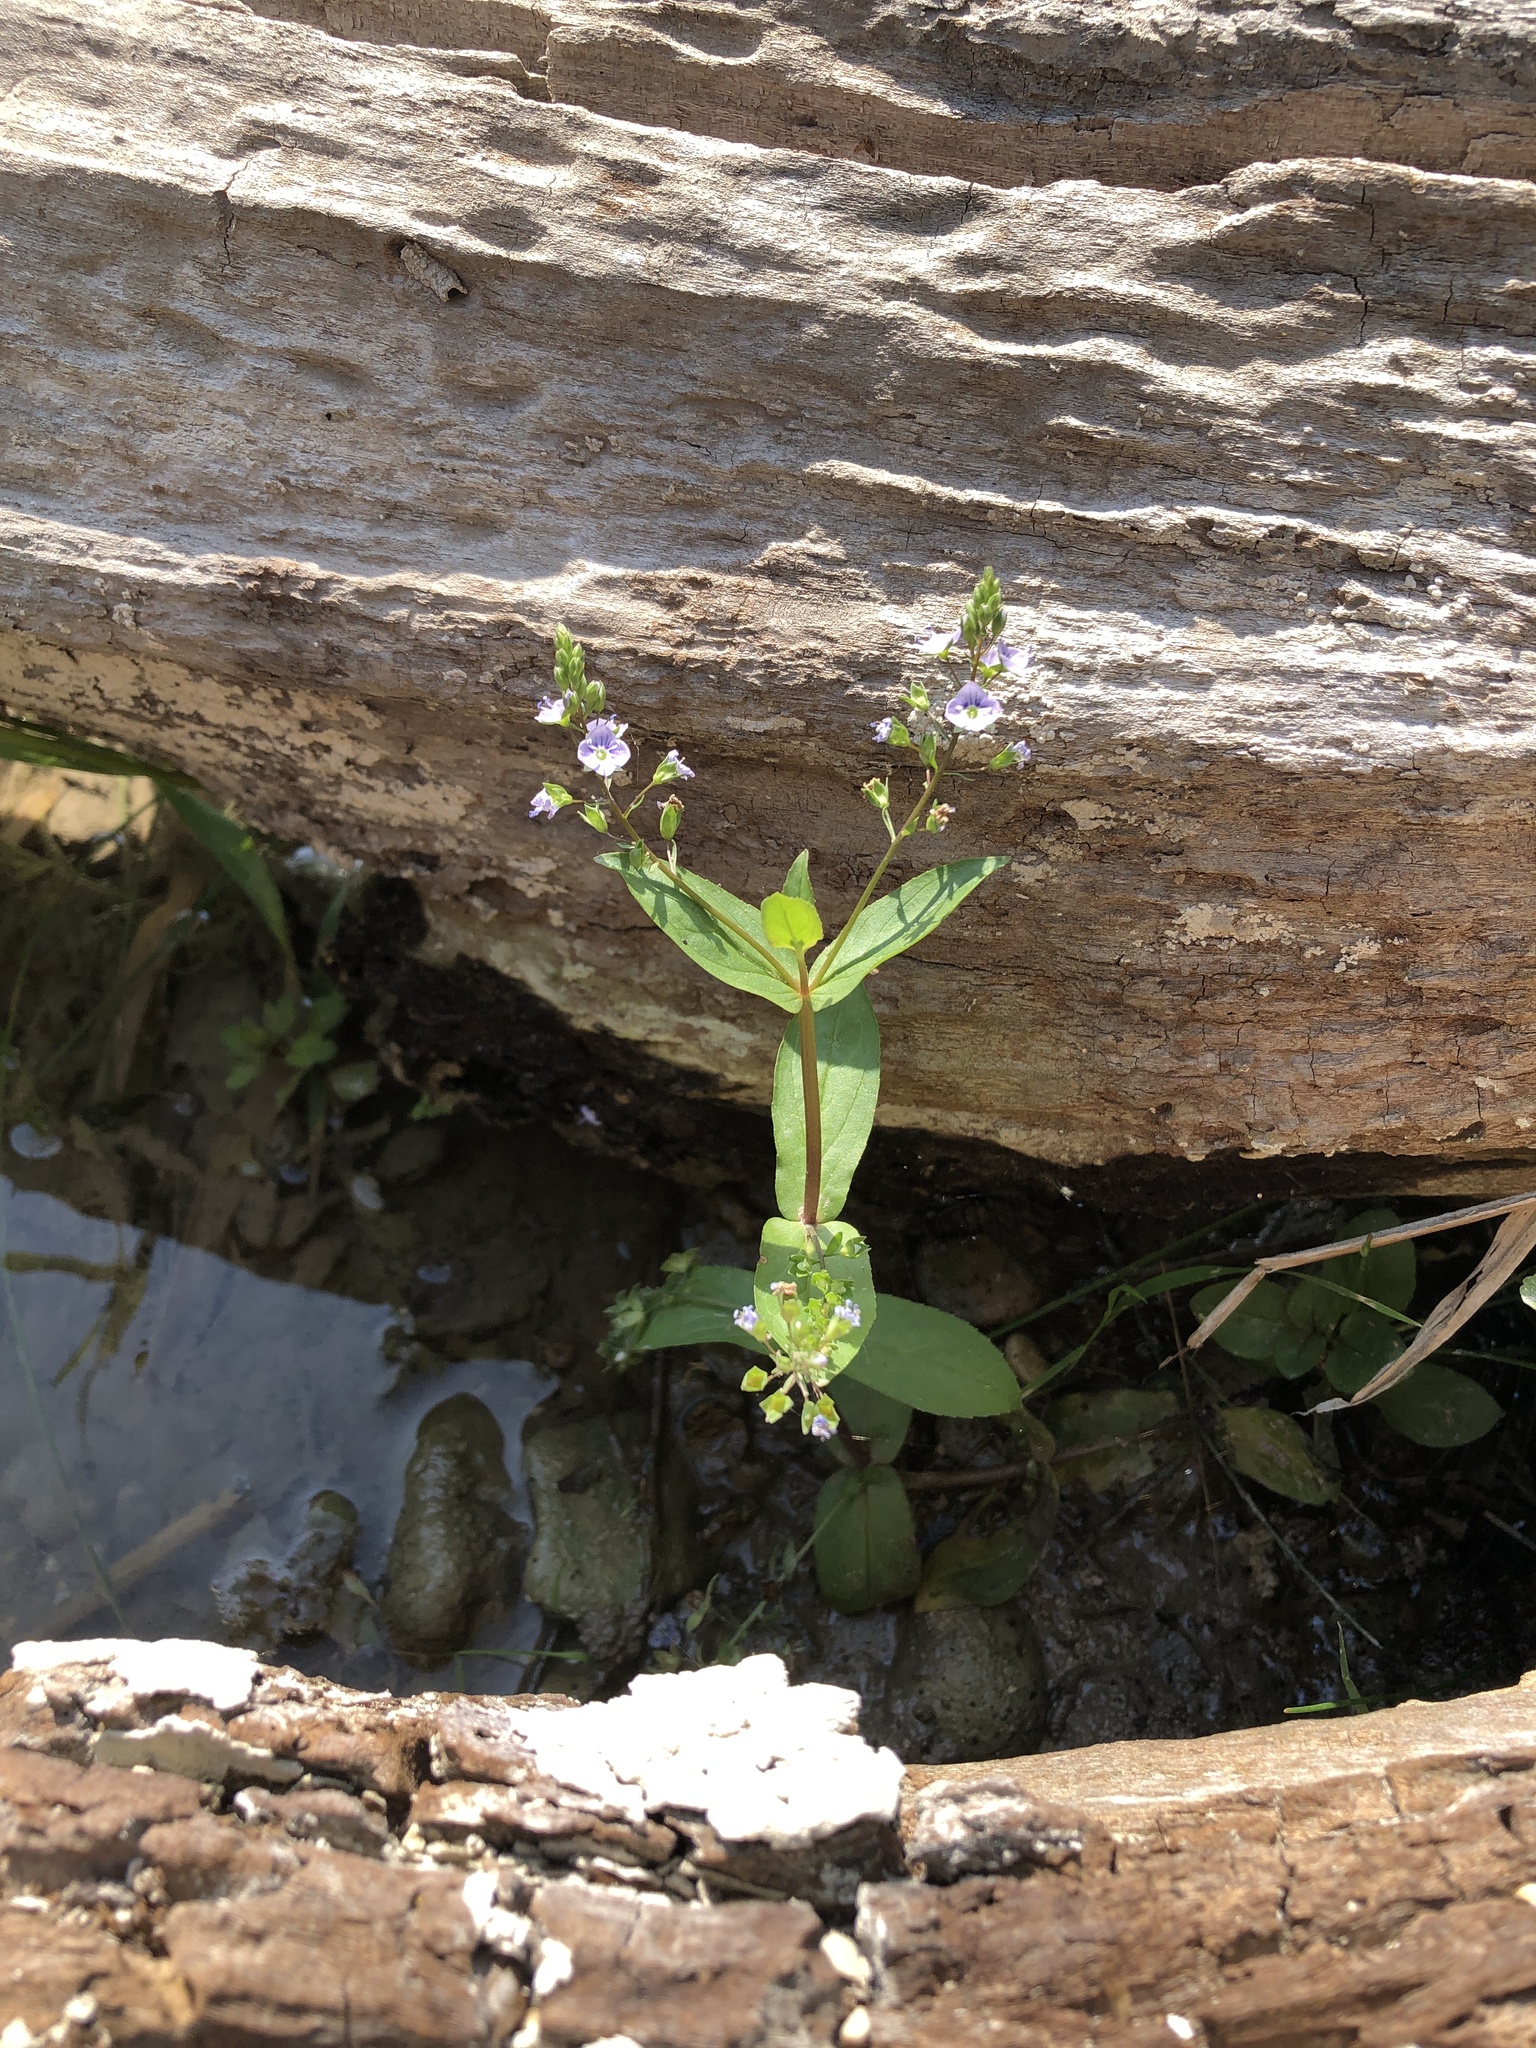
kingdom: Plantae
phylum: Tracheophyta
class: Magnoliopsida
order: Lamiales
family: Plantaginaceae
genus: Veronica
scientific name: Veronica anagallis-aquatica
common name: Water speedwell
